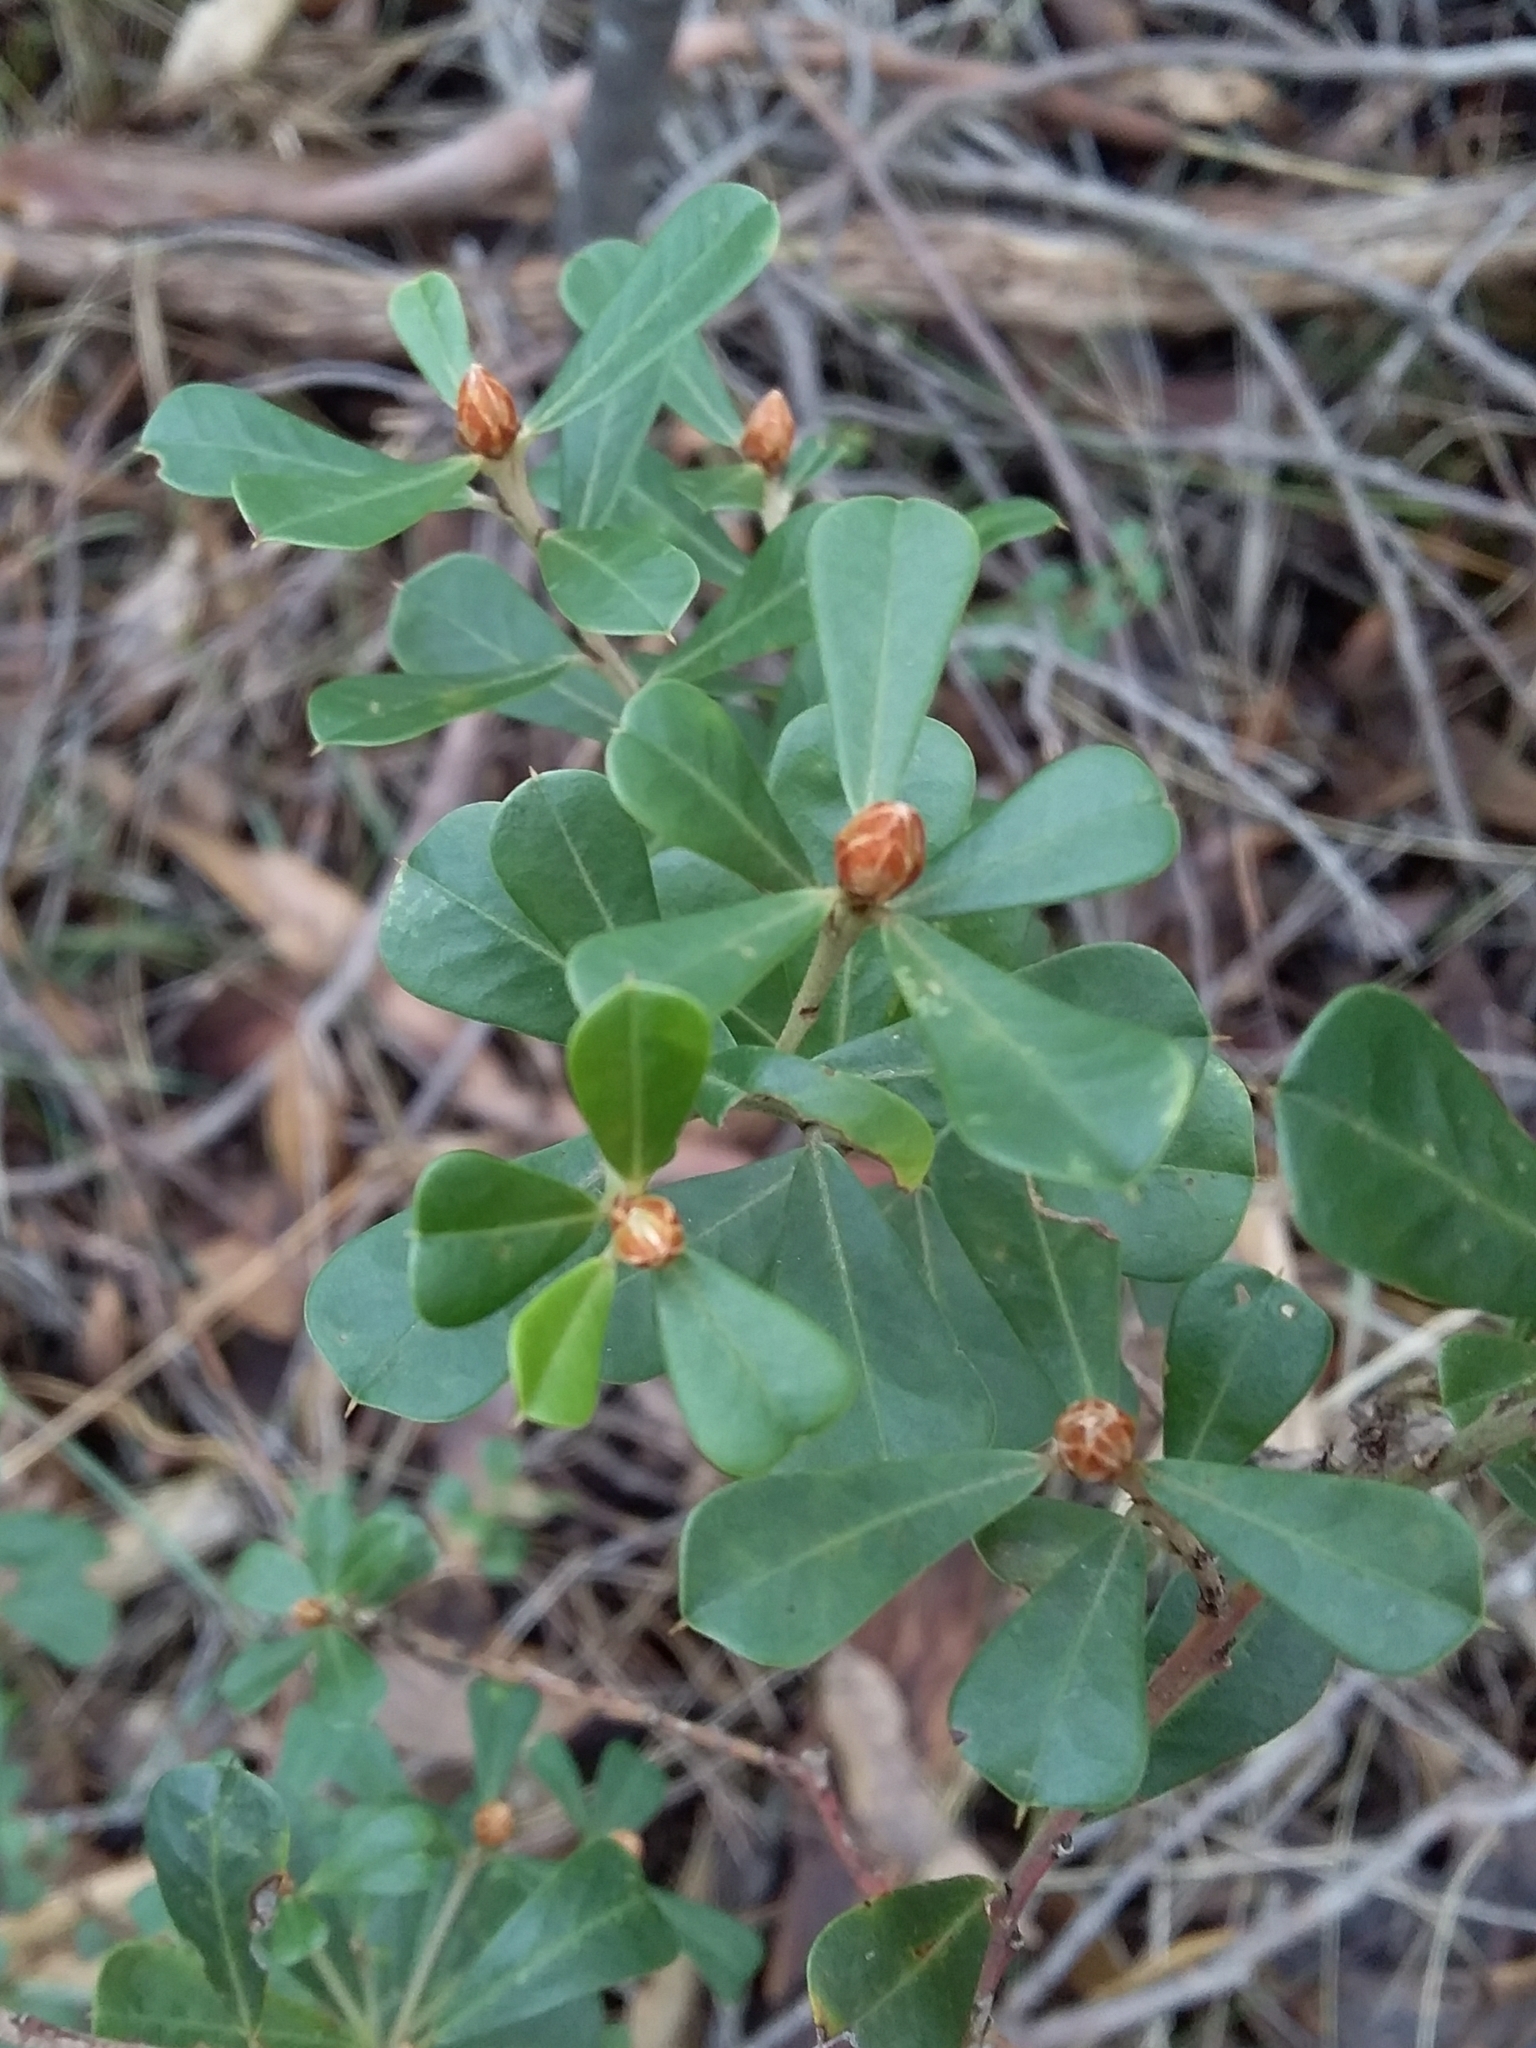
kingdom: Plantae
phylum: Tracheophyta
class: Magnoliopsida
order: Fabales
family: Fabaceae
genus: Pultenaea
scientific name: Pultenaea daphnoides
